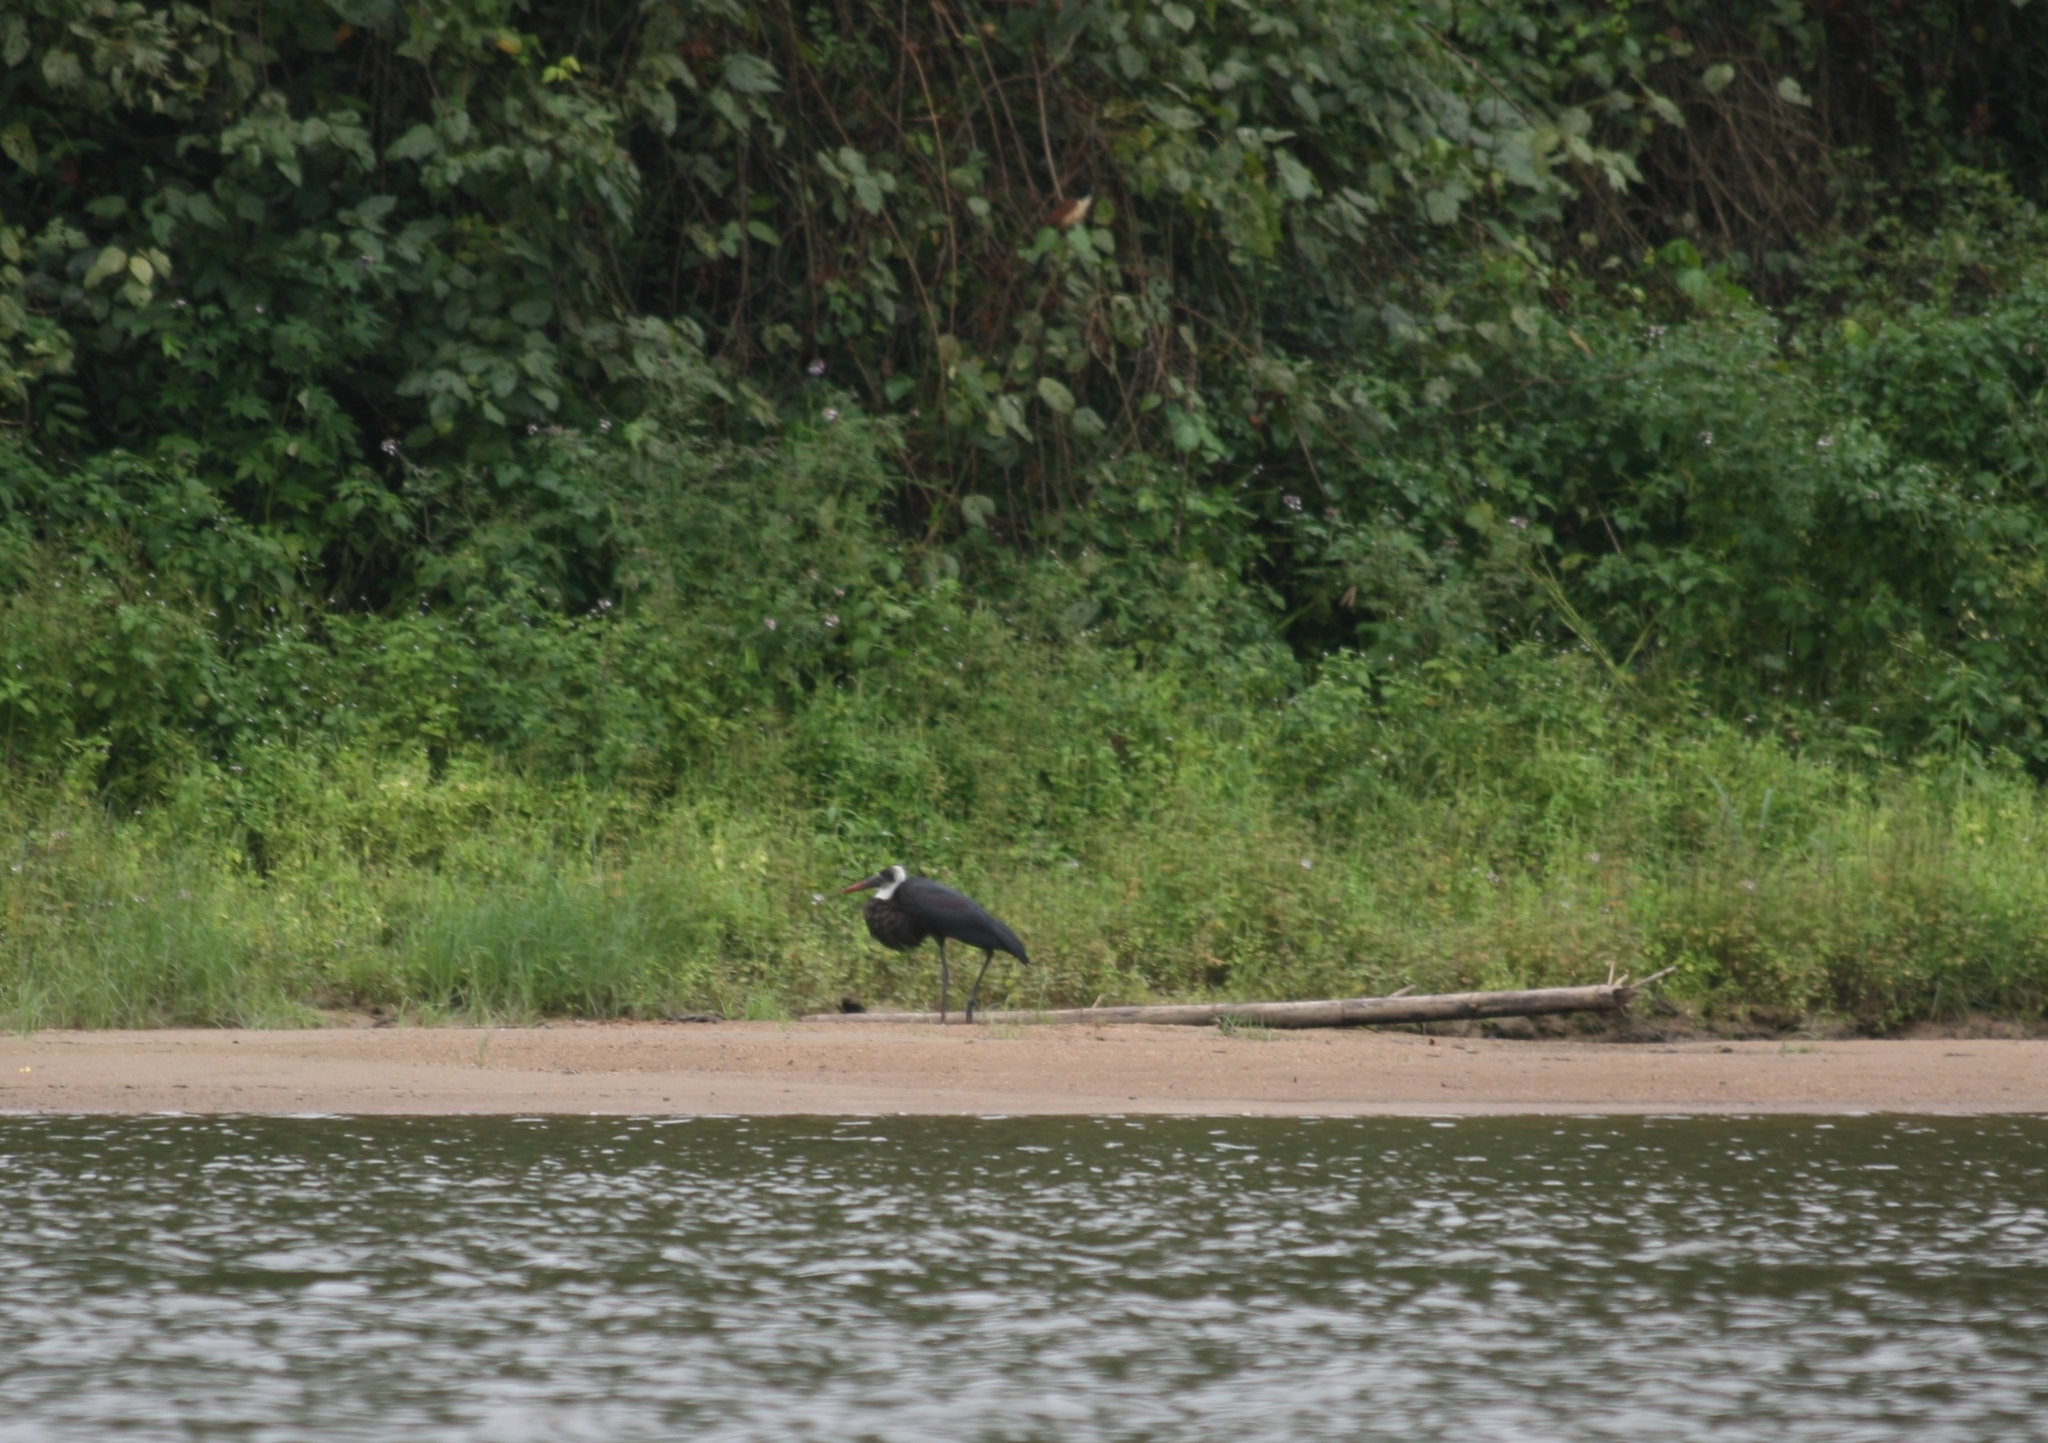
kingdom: Animalia
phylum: Chordata
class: Aves
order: Ciconiiformes
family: Ciconiidae
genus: Ciconia
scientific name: Ciconia microscelis
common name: African woollyneck
